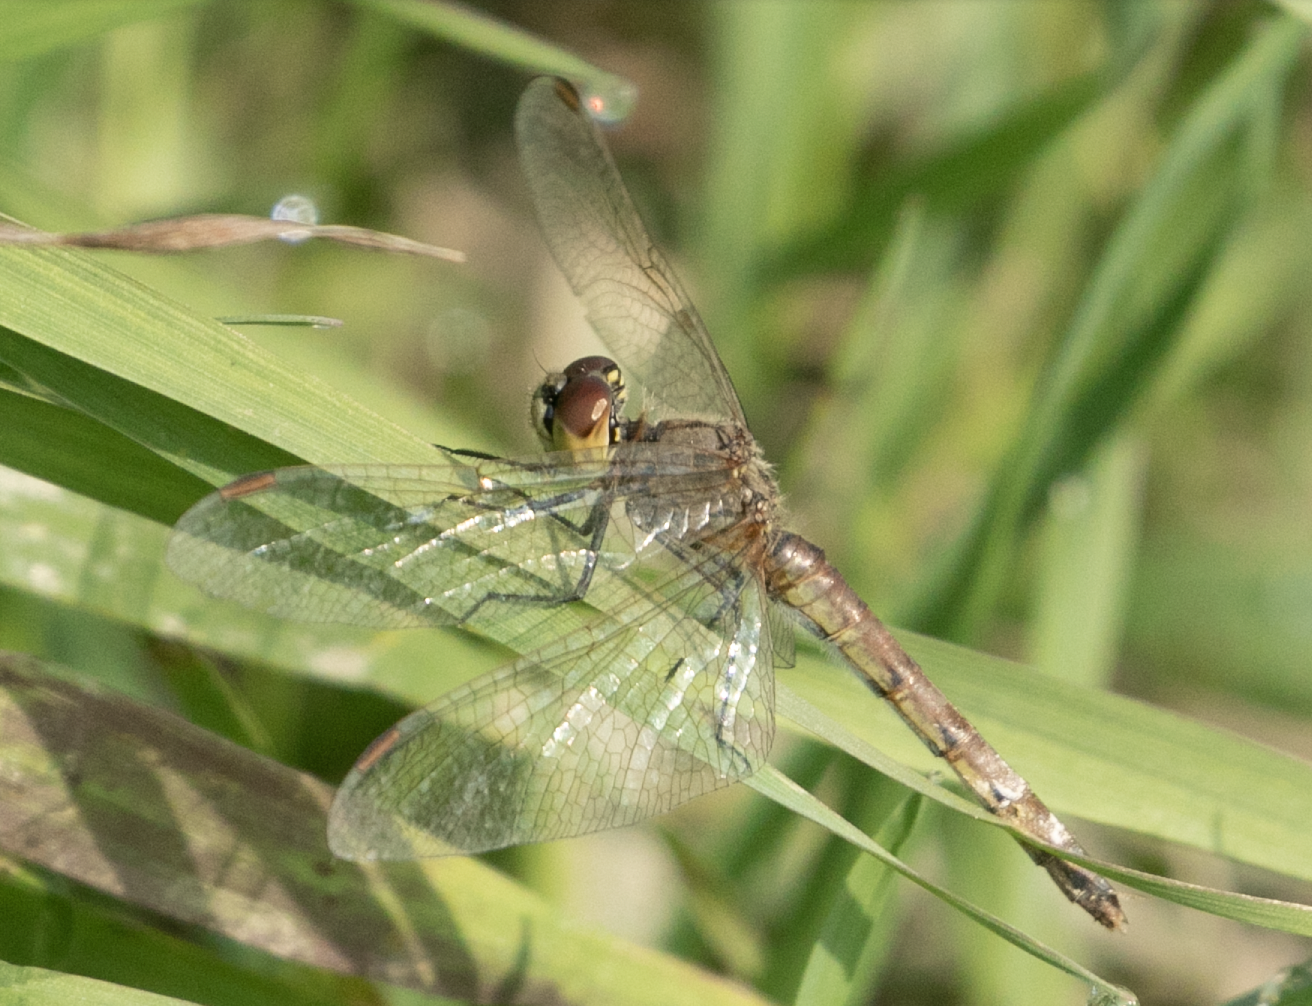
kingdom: Animalia
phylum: Arthropoda
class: Insecta
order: Odonata
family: Libellulidae
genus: Sympetrum
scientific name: Sympetrum depressiusculum
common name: Spotted darter
